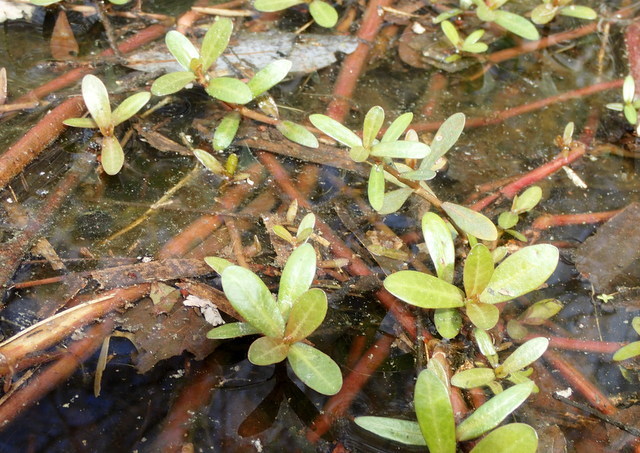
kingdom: Plantae
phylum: Tracheophyta
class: Magnoliopsida
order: Caryophyllales
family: Amaranthaceae
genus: Alternanthera
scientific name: Alternanthera philoxeroides
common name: Alligatorweed
